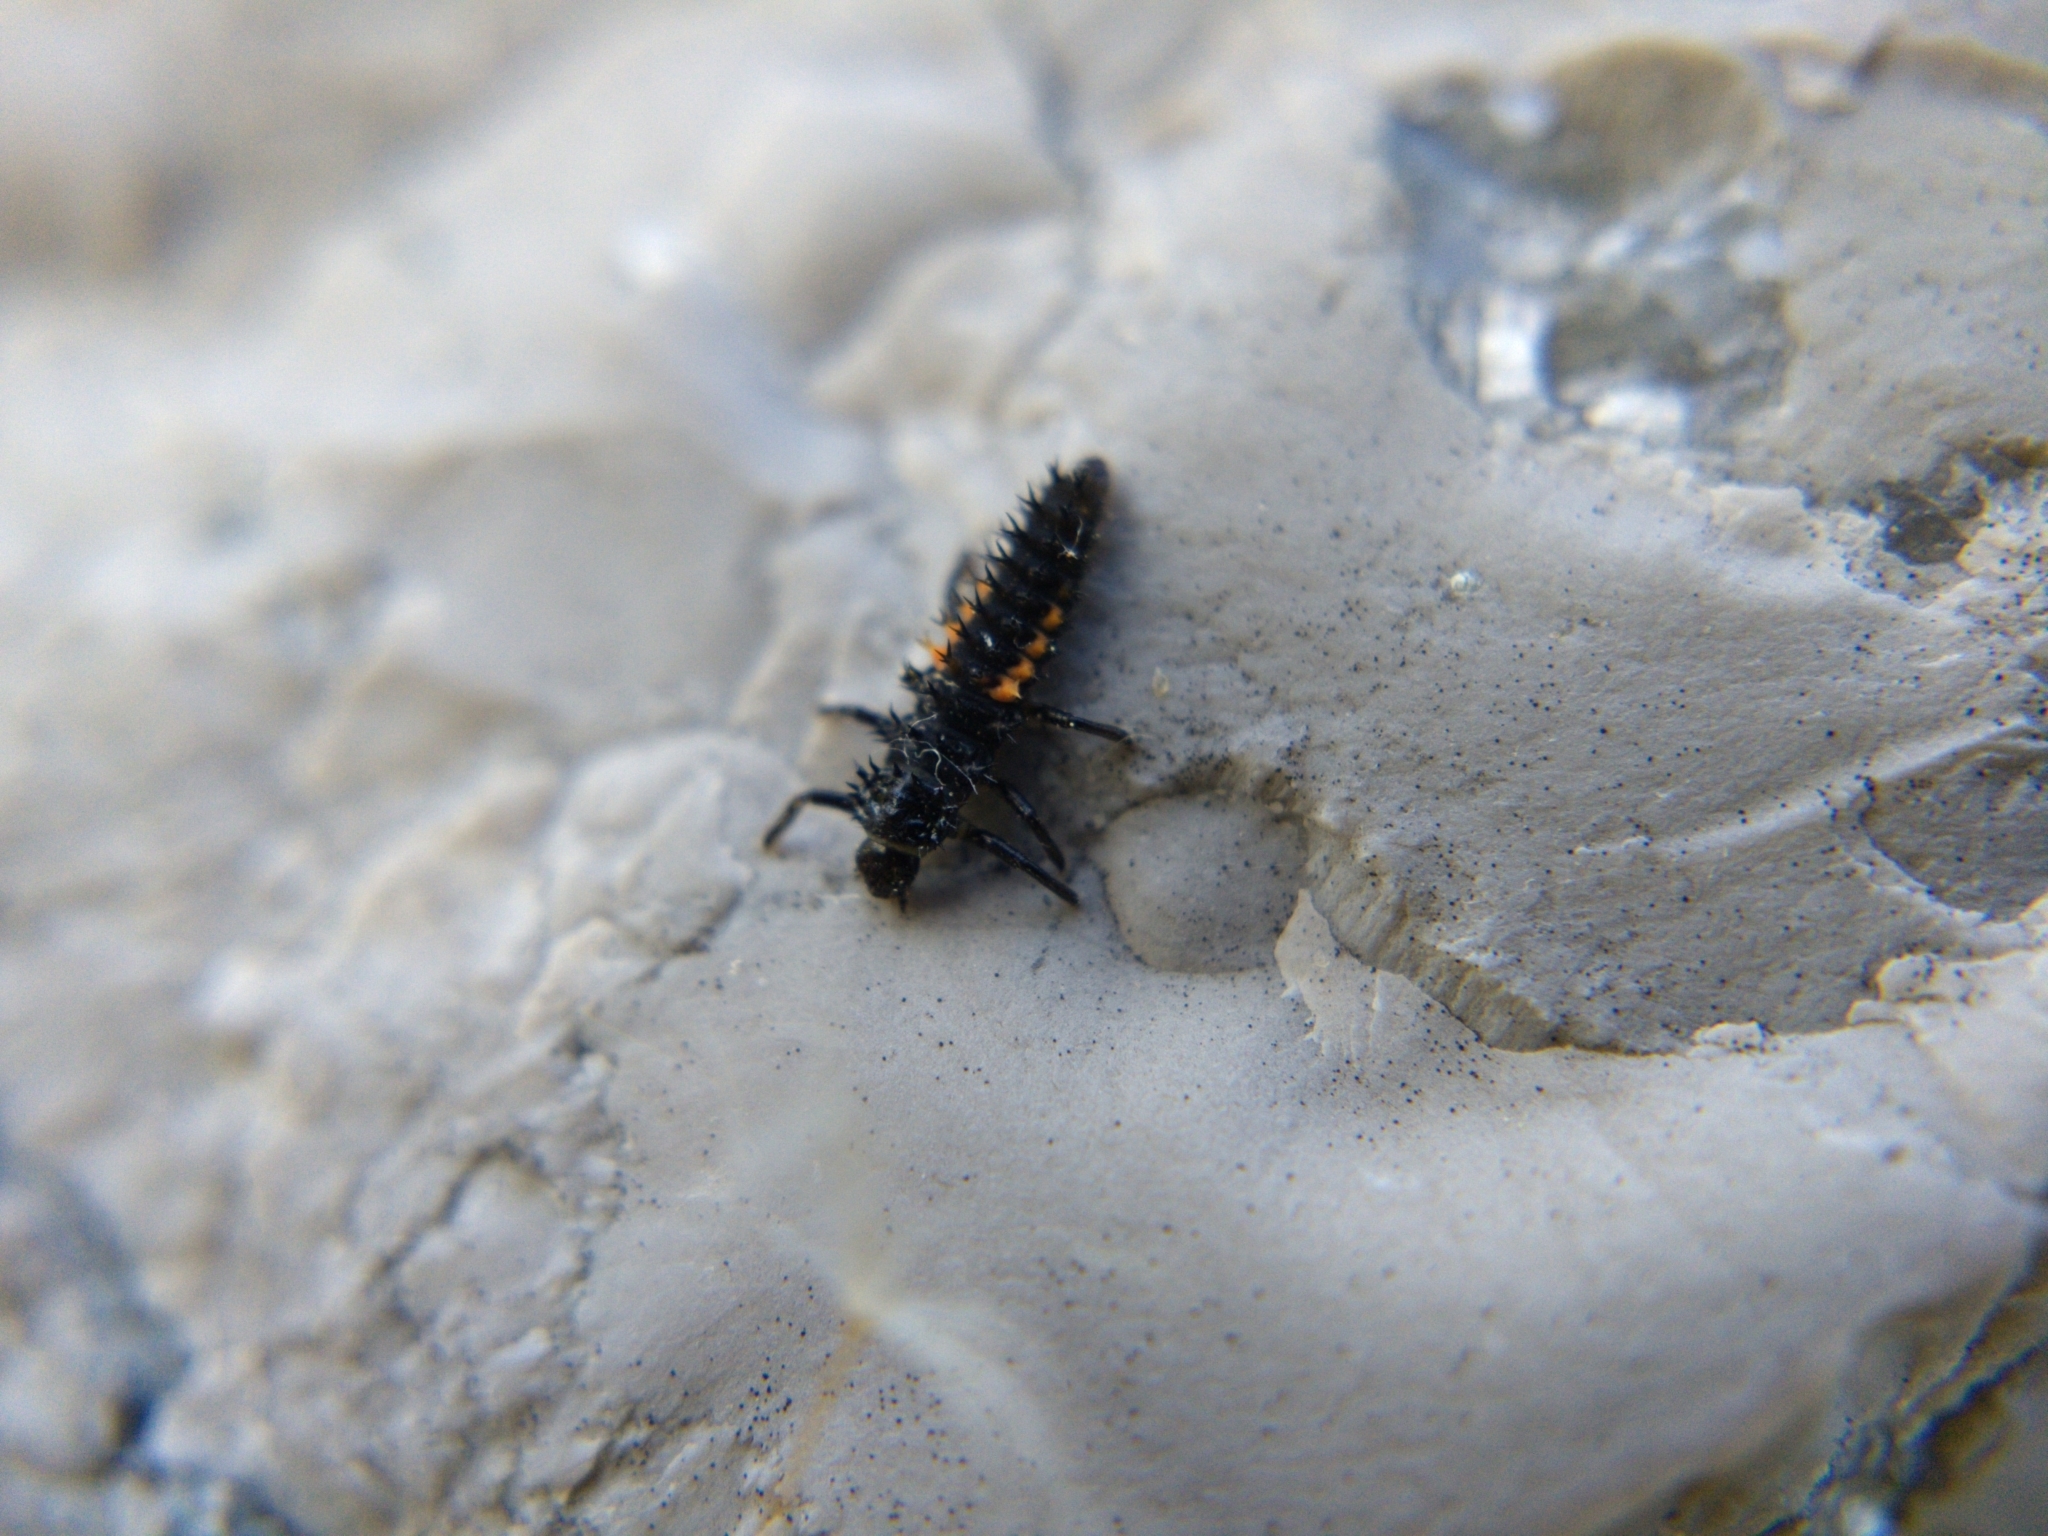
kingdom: Animalia
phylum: Arthropoda
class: Insecta
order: Coleoptera
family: Coccinellidae
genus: Harmonia
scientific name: Harmonia axyridis
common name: Harlequin ladybird
